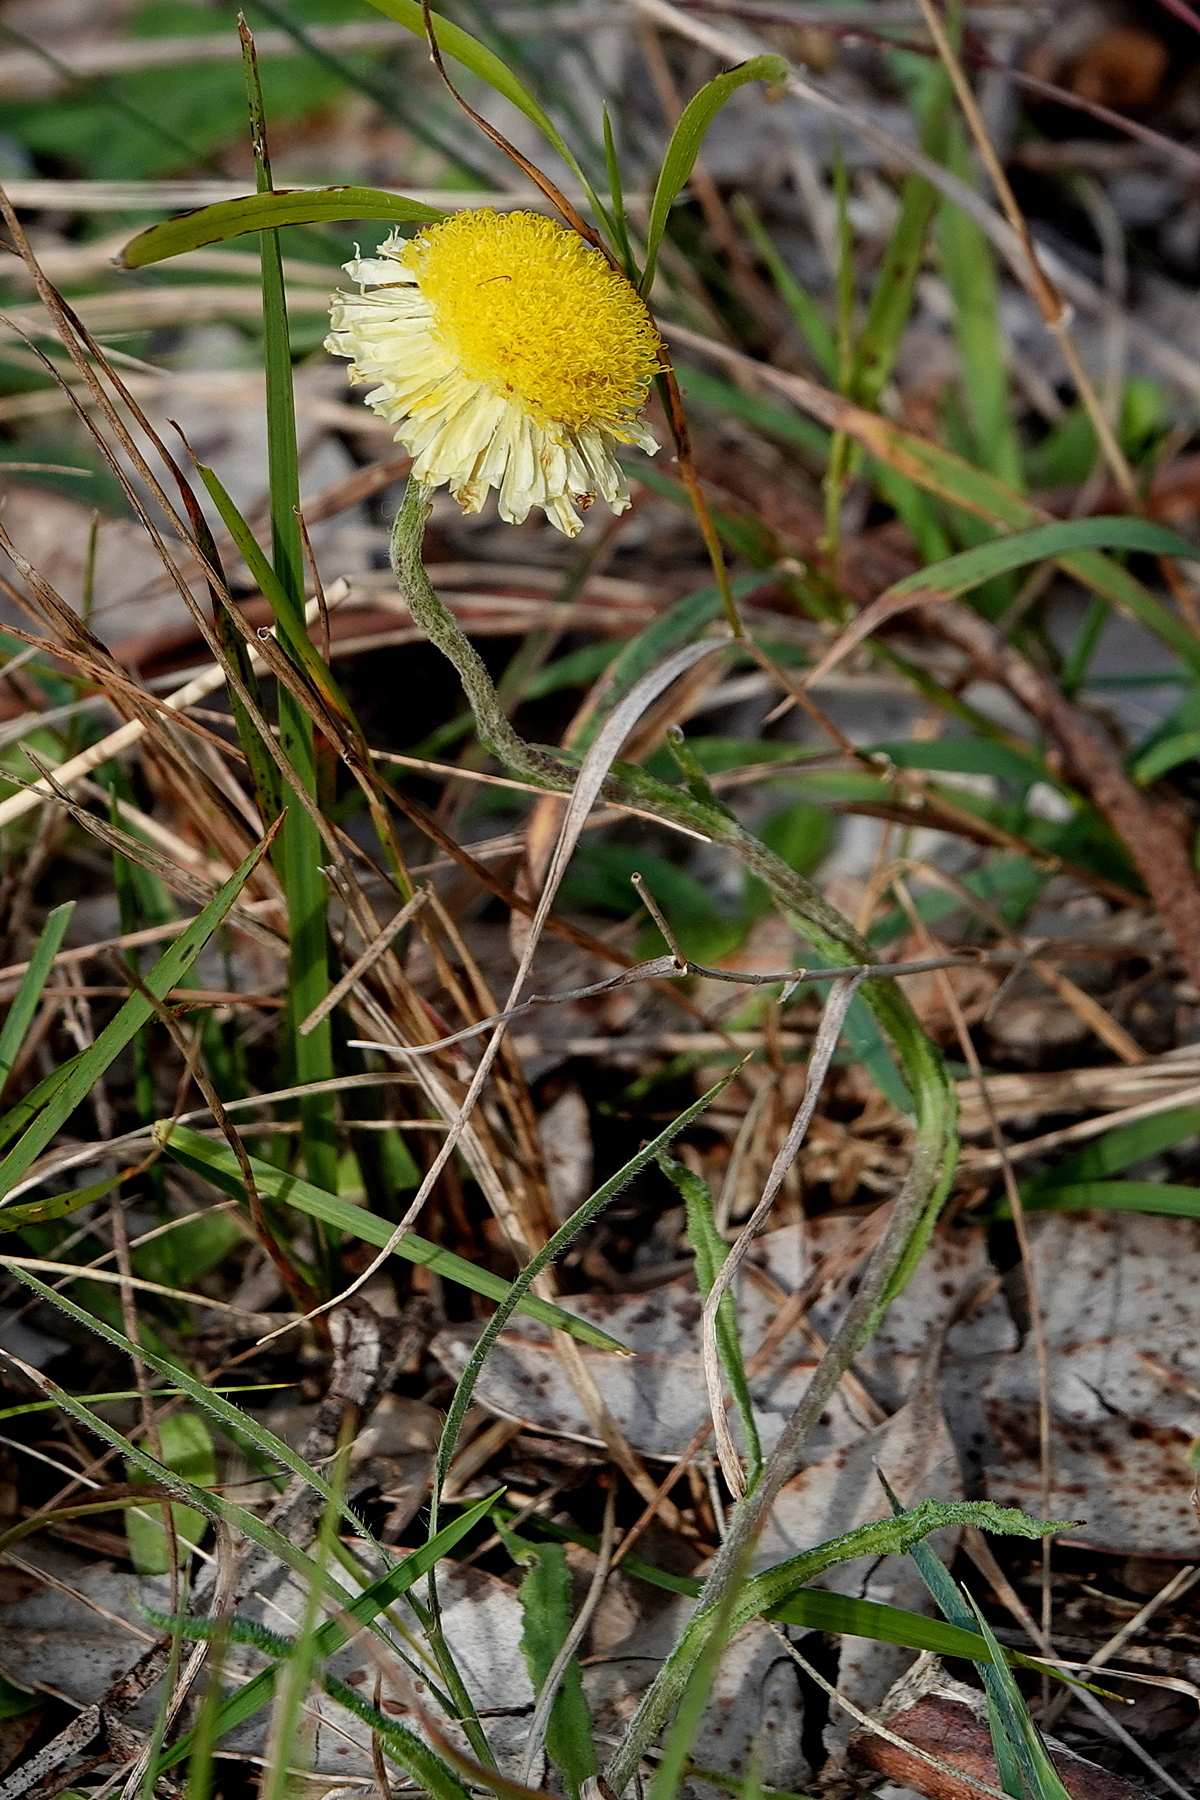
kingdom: Plantae
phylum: Tracheophyta
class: Magnoliopsida
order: Asterales
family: Asteraceae
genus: Coronidium
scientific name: Coronidium scorpioides
